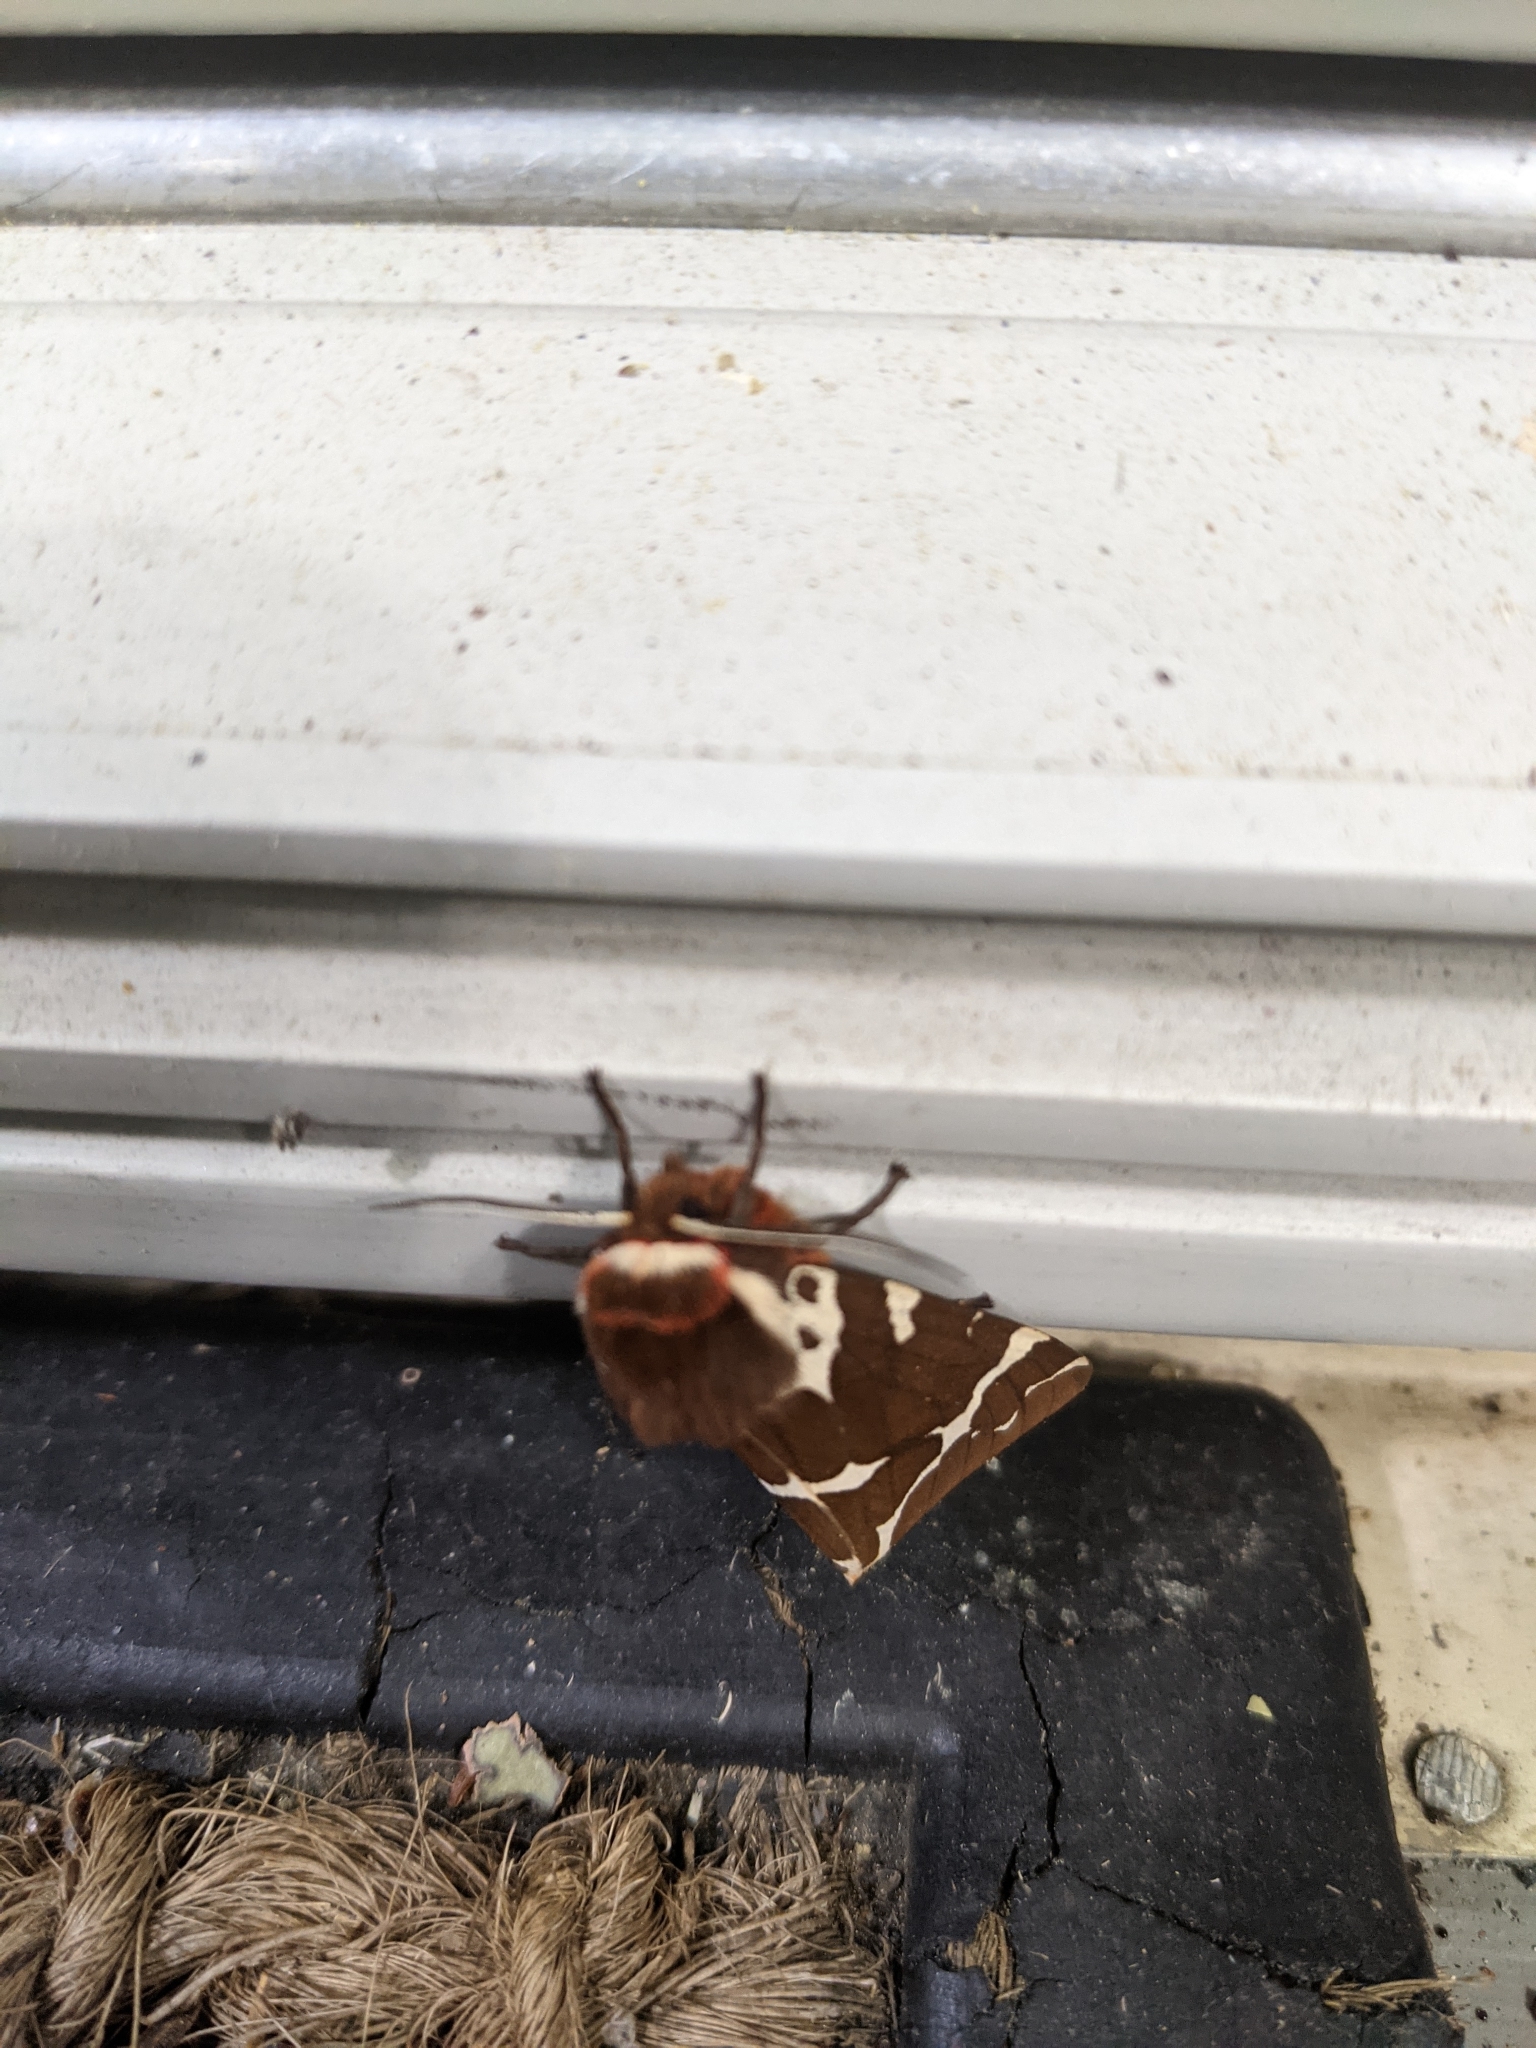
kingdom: Animalia
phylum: Arthropoda
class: Insecta
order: Lepidoptera
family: Erebidae
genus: Arctia
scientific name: Arctia caja
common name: Garden tiger
